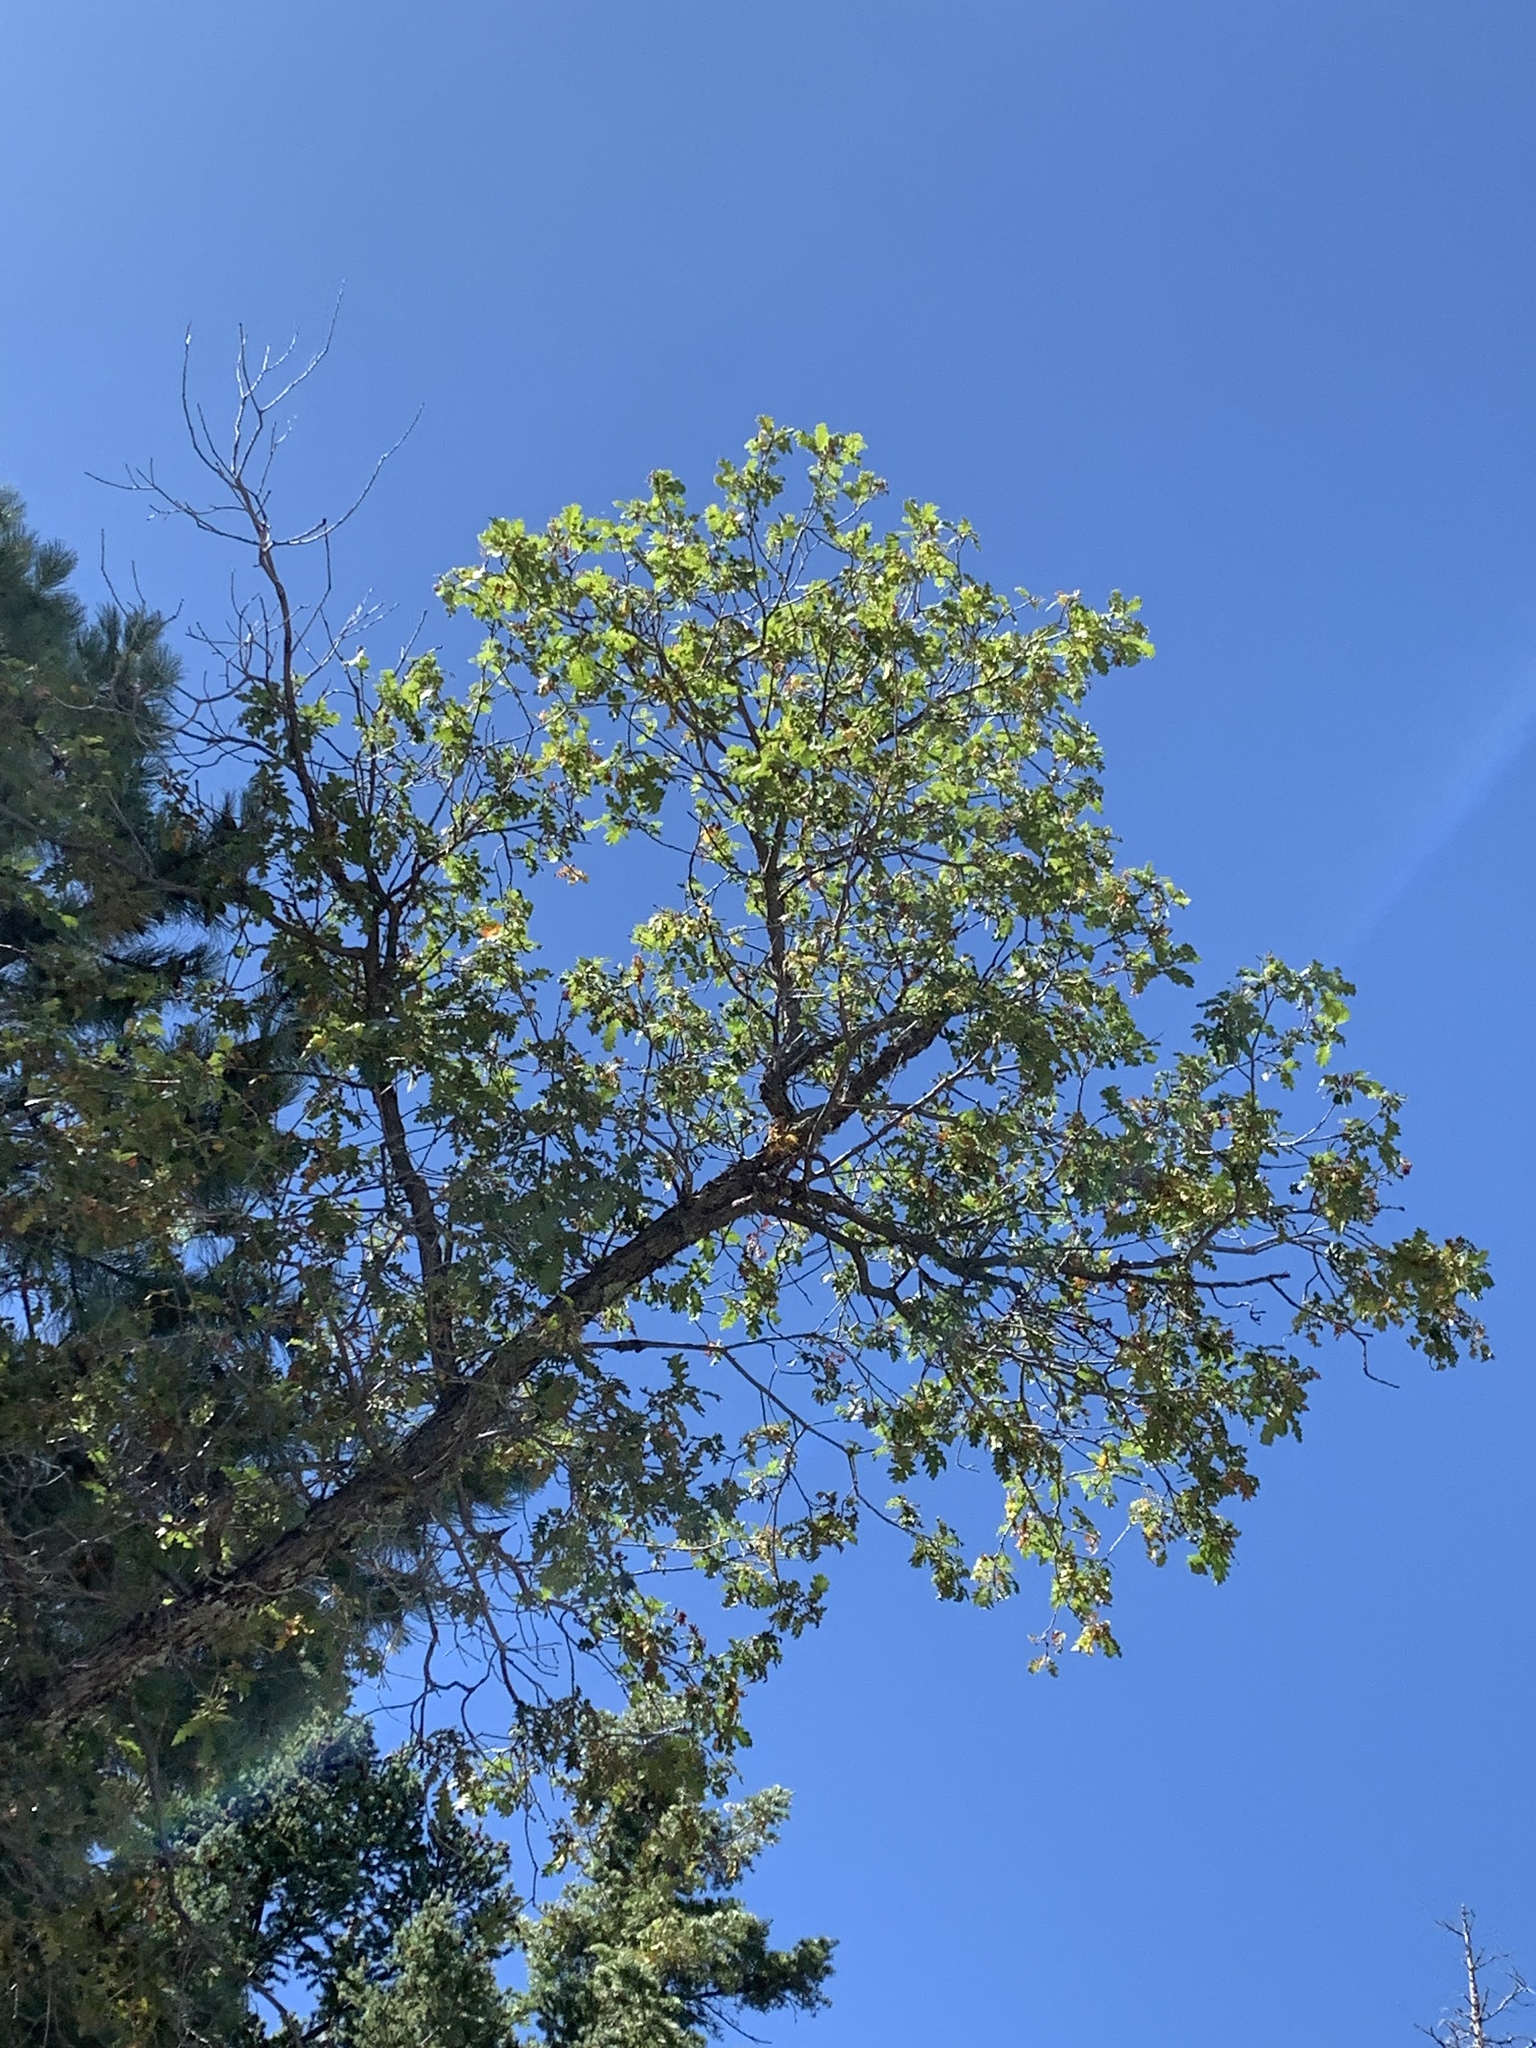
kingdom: Plantae
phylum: Tracheophyta
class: Magnoliopsida
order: Fagales
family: Fagaceae
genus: Quercus
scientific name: Quercus gambelii
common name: Gambel oak
